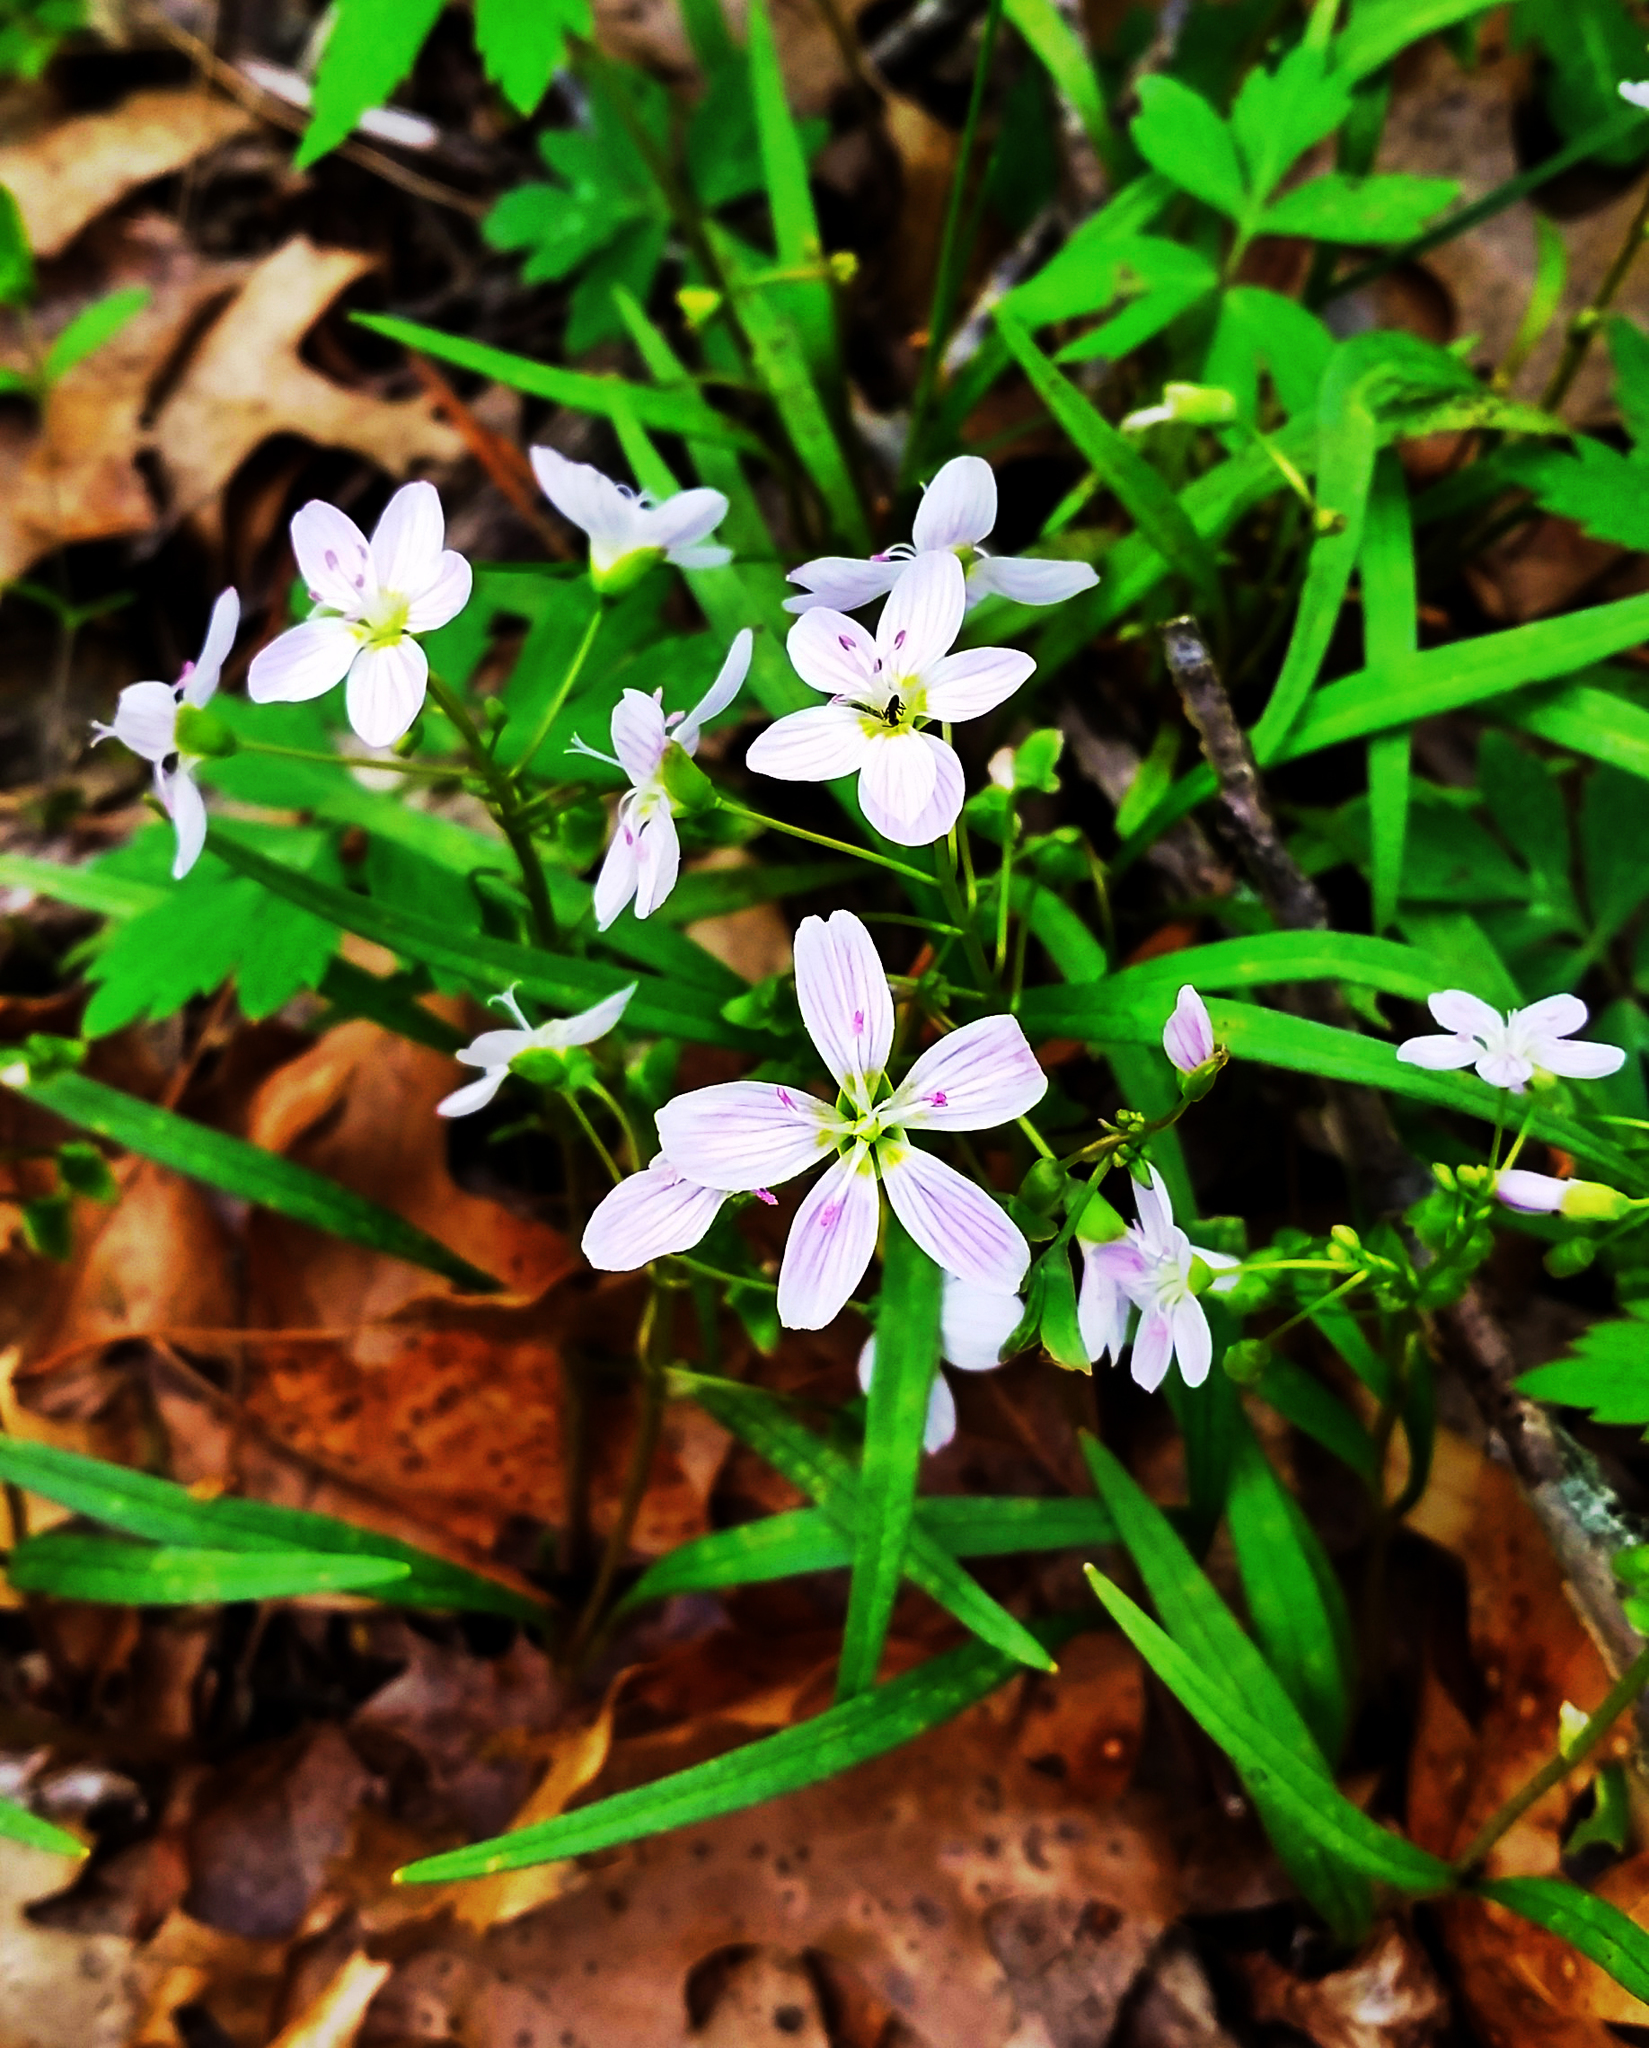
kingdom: Plantae
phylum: Tracheophyta
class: Magnoliopsida
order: Caryophyllales
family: Montiaceae
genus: Claytonia
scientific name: Claytonia virginica
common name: Virginia springbeauty
